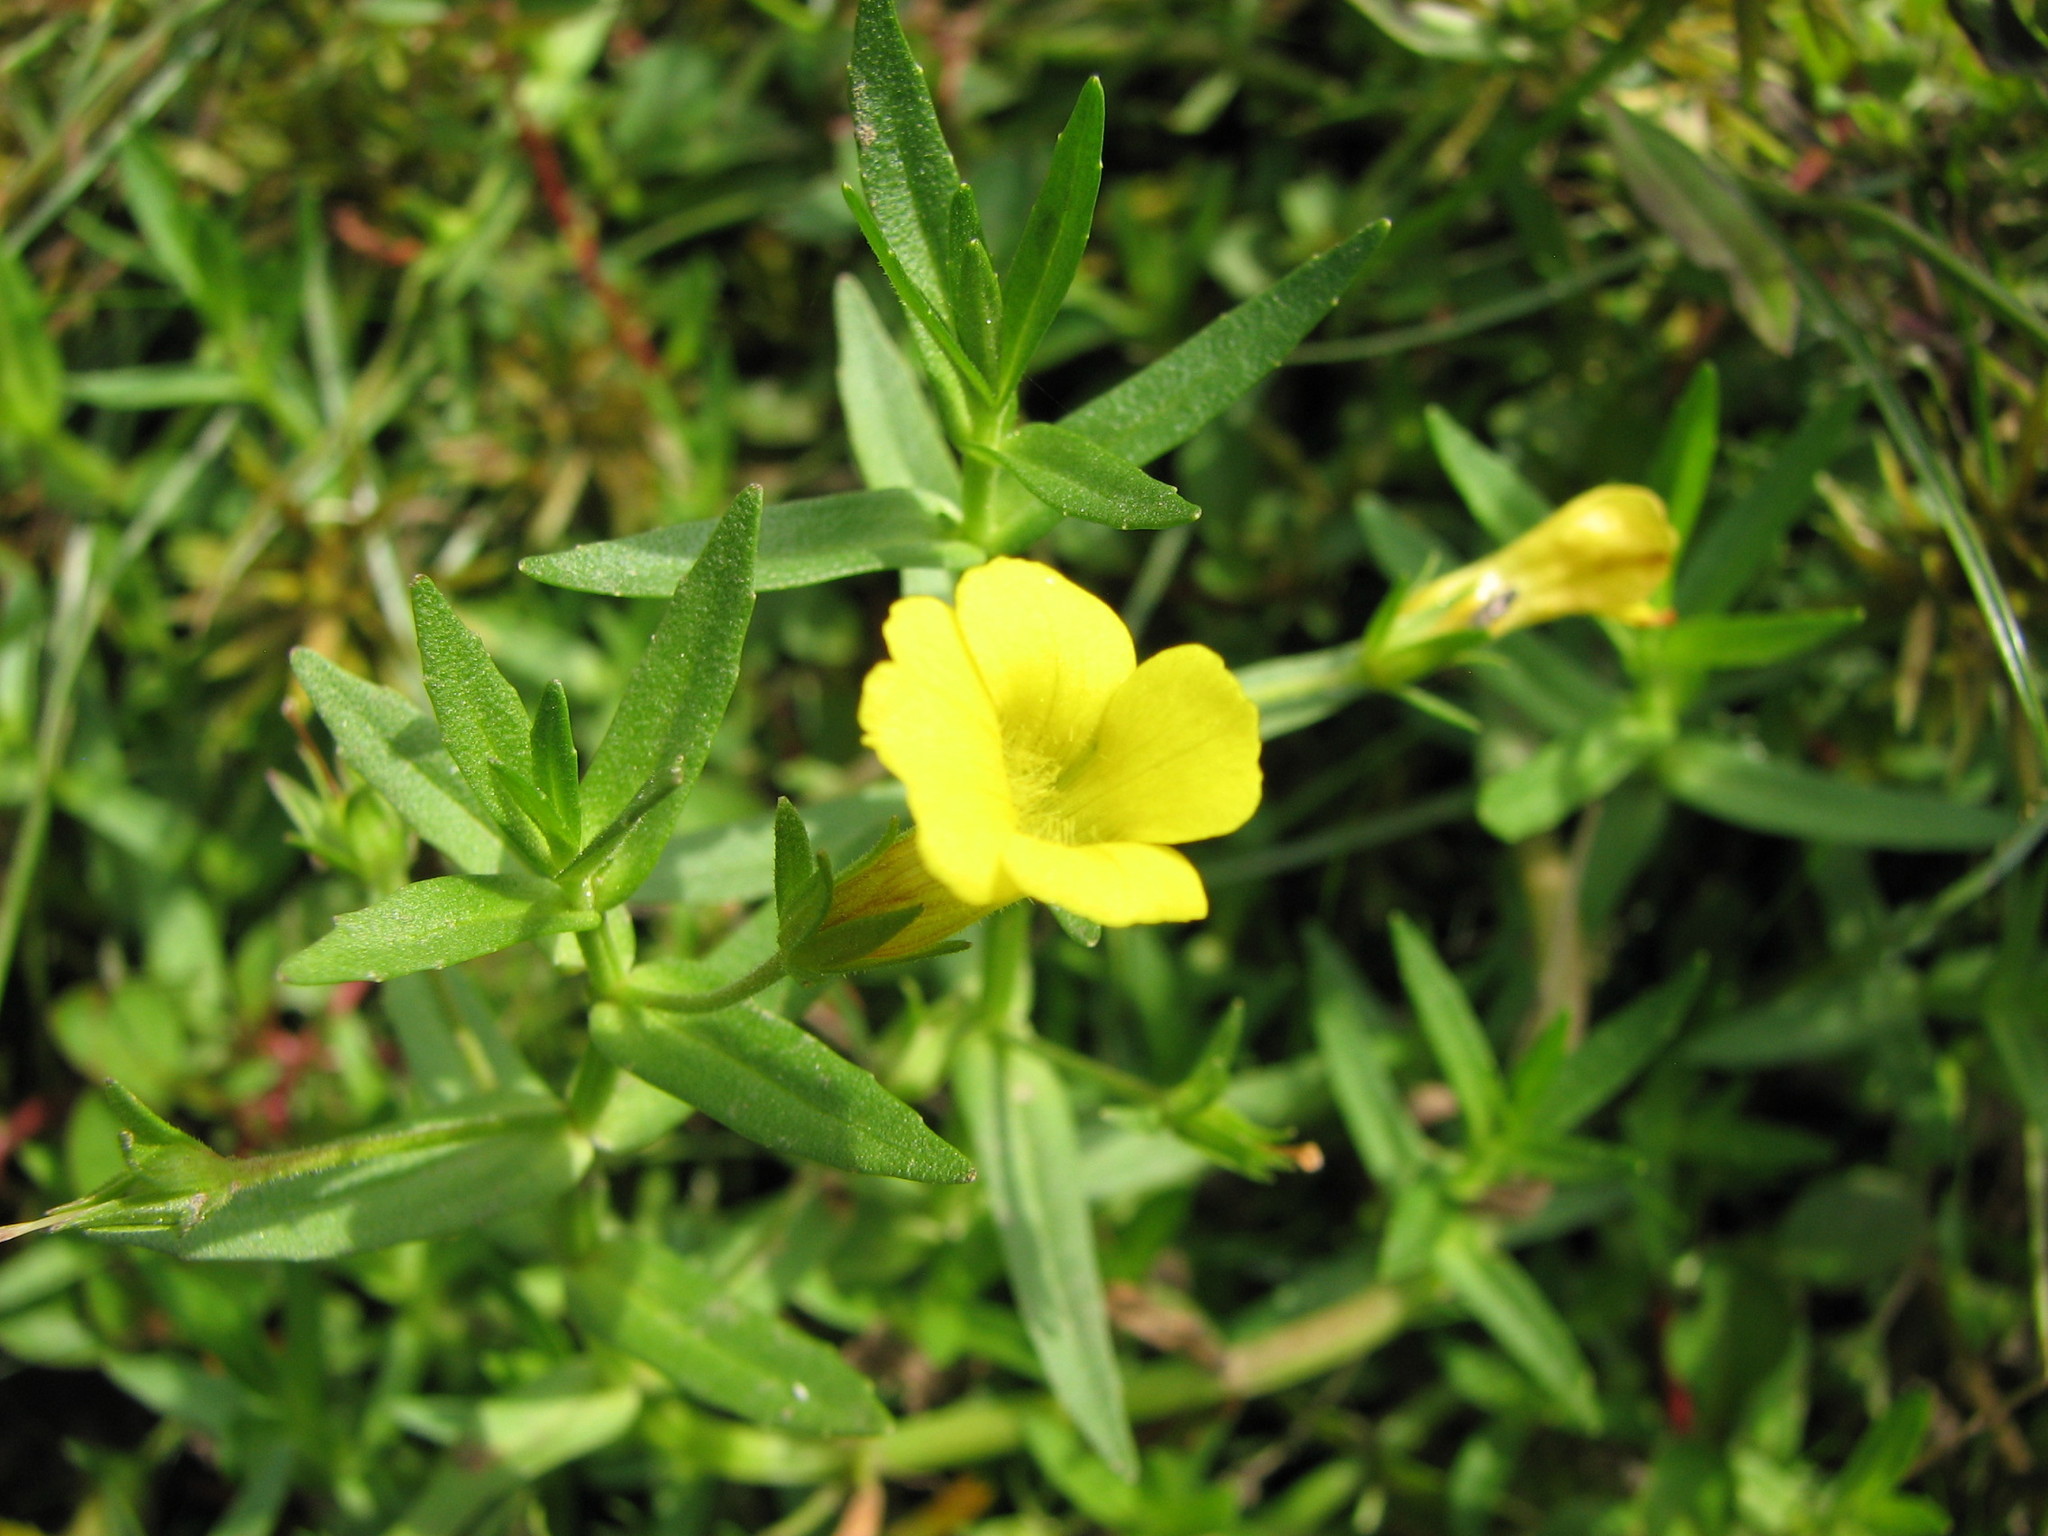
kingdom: Plantae
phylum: Tracheophyta
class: Magnoliopsida
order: Lamiales
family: Plantaginaceae
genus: Gratiola
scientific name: Gratiola lutea
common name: Golden hedge-hyssop
